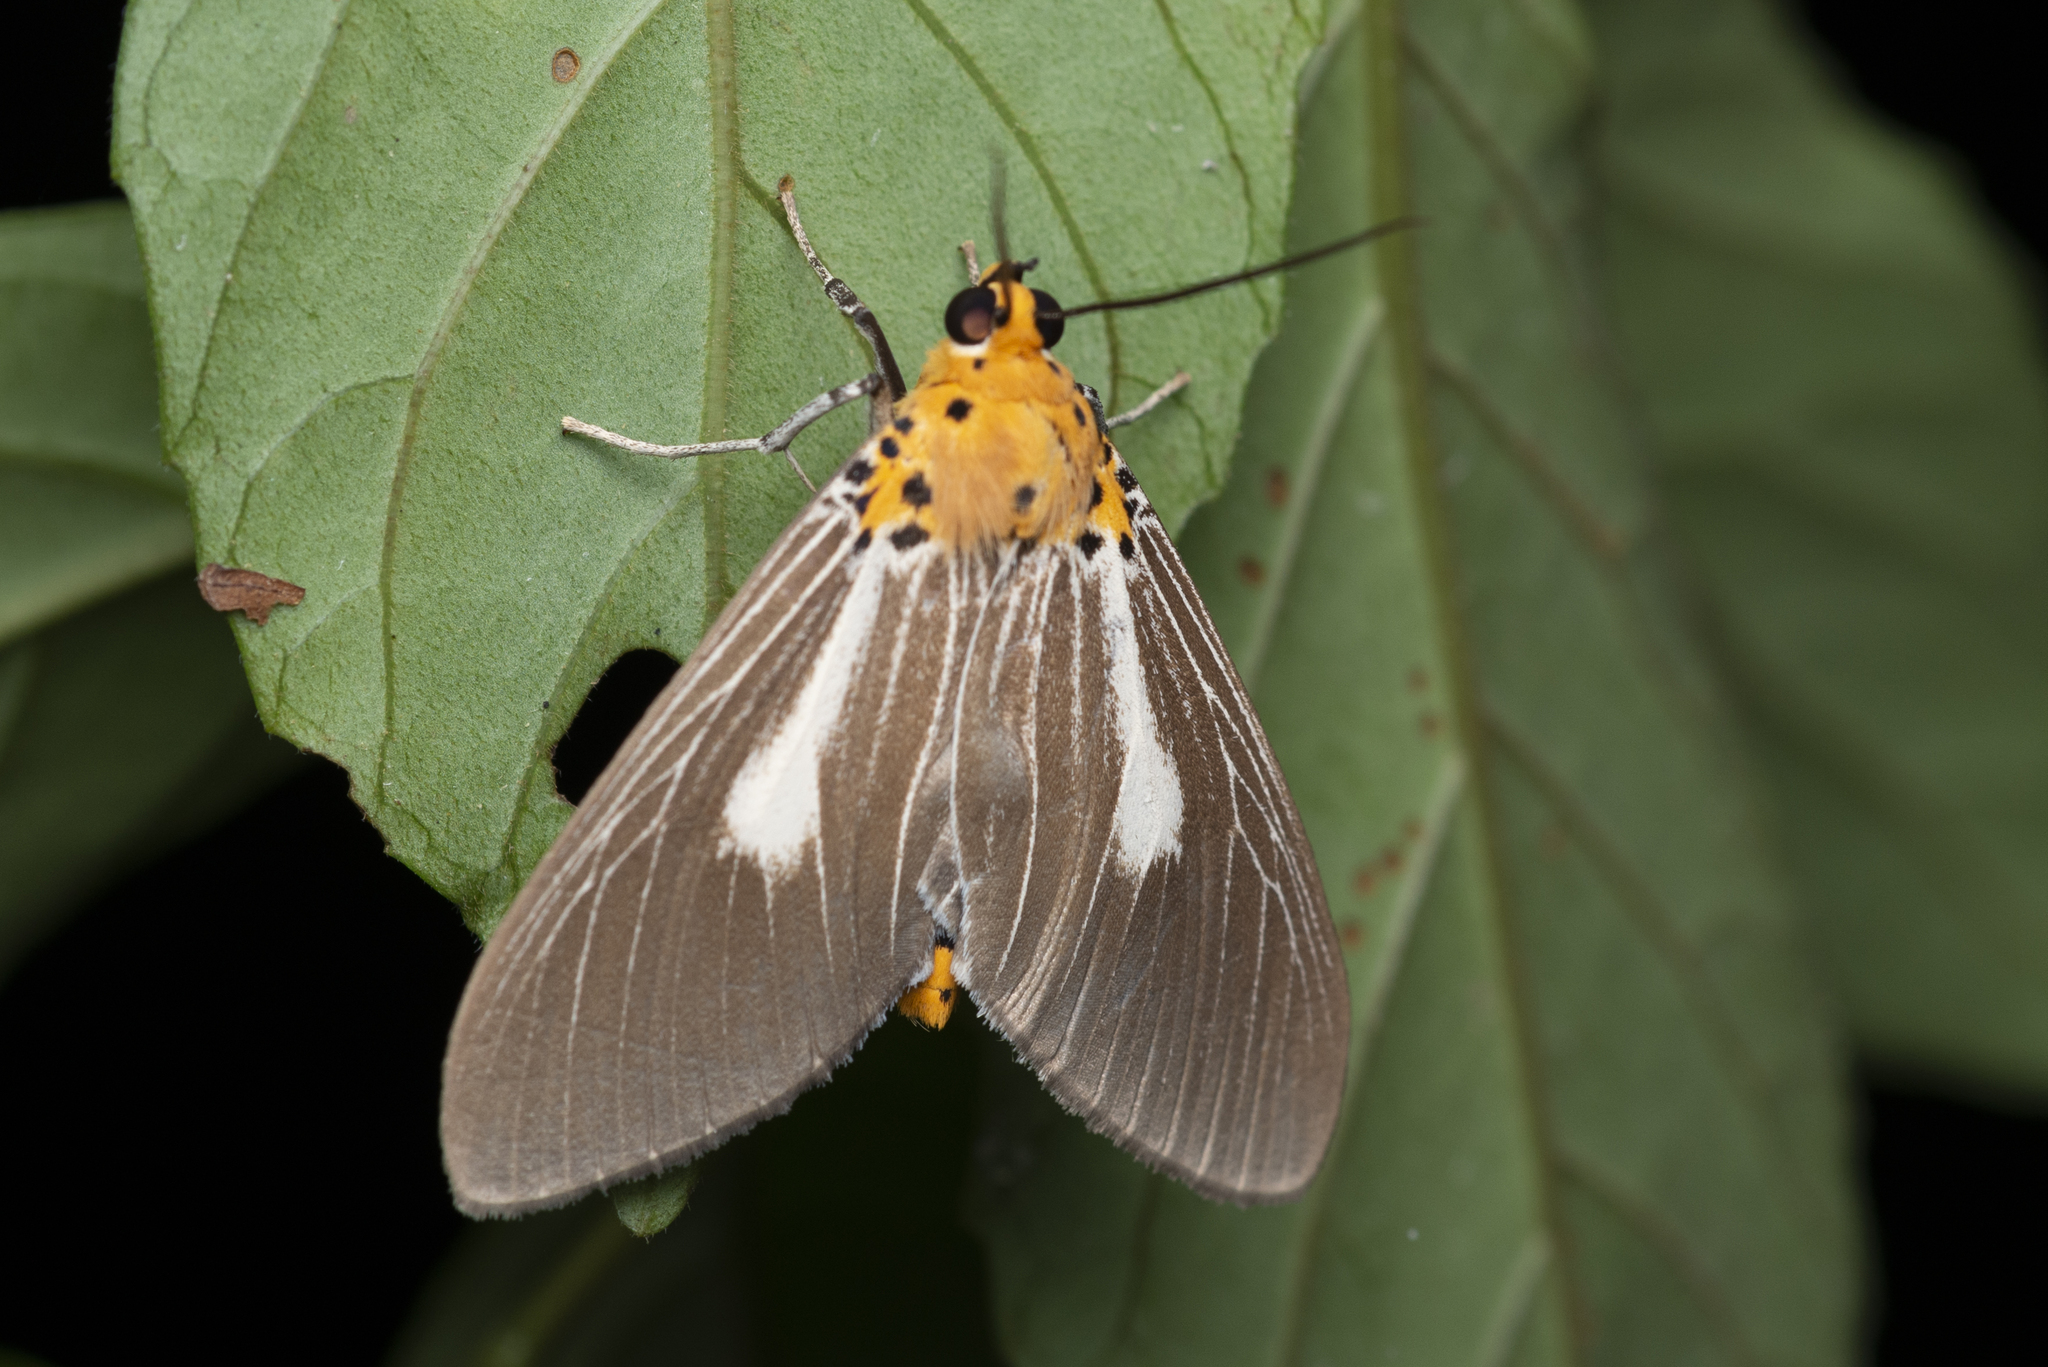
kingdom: Animalia
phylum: Arthropoda
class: Insecta
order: Lepidoptera
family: Erebidae
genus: Asota
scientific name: Asota heliconia
